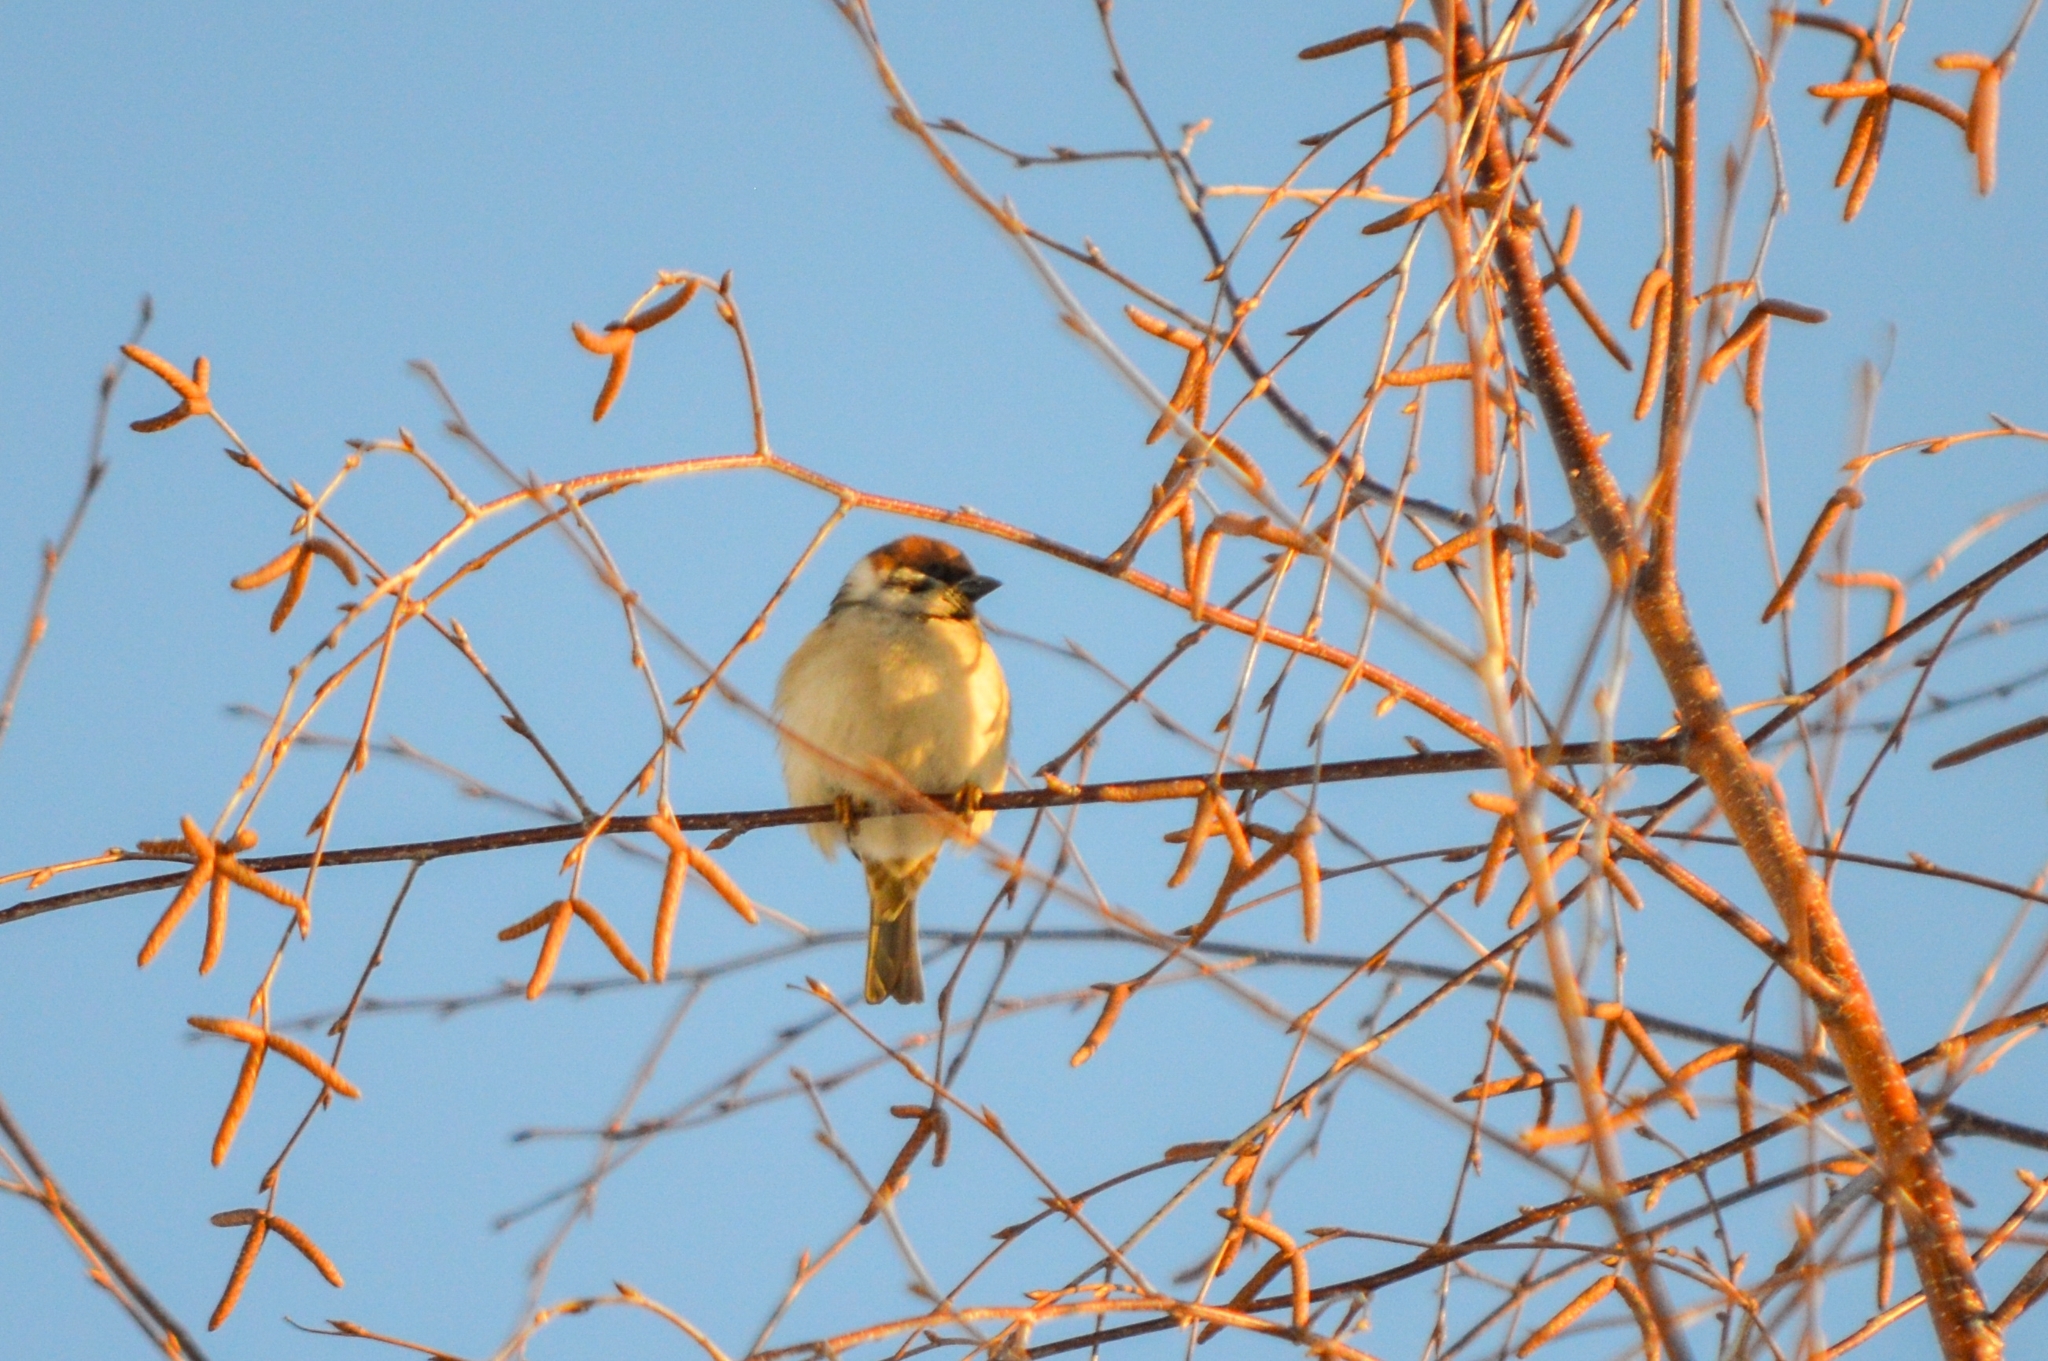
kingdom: Animalia
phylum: Chordata
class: Aves
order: Passeriformes
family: Passeridae
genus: Passer
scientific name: Passer montanus
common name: Eurasian tree sparrow
